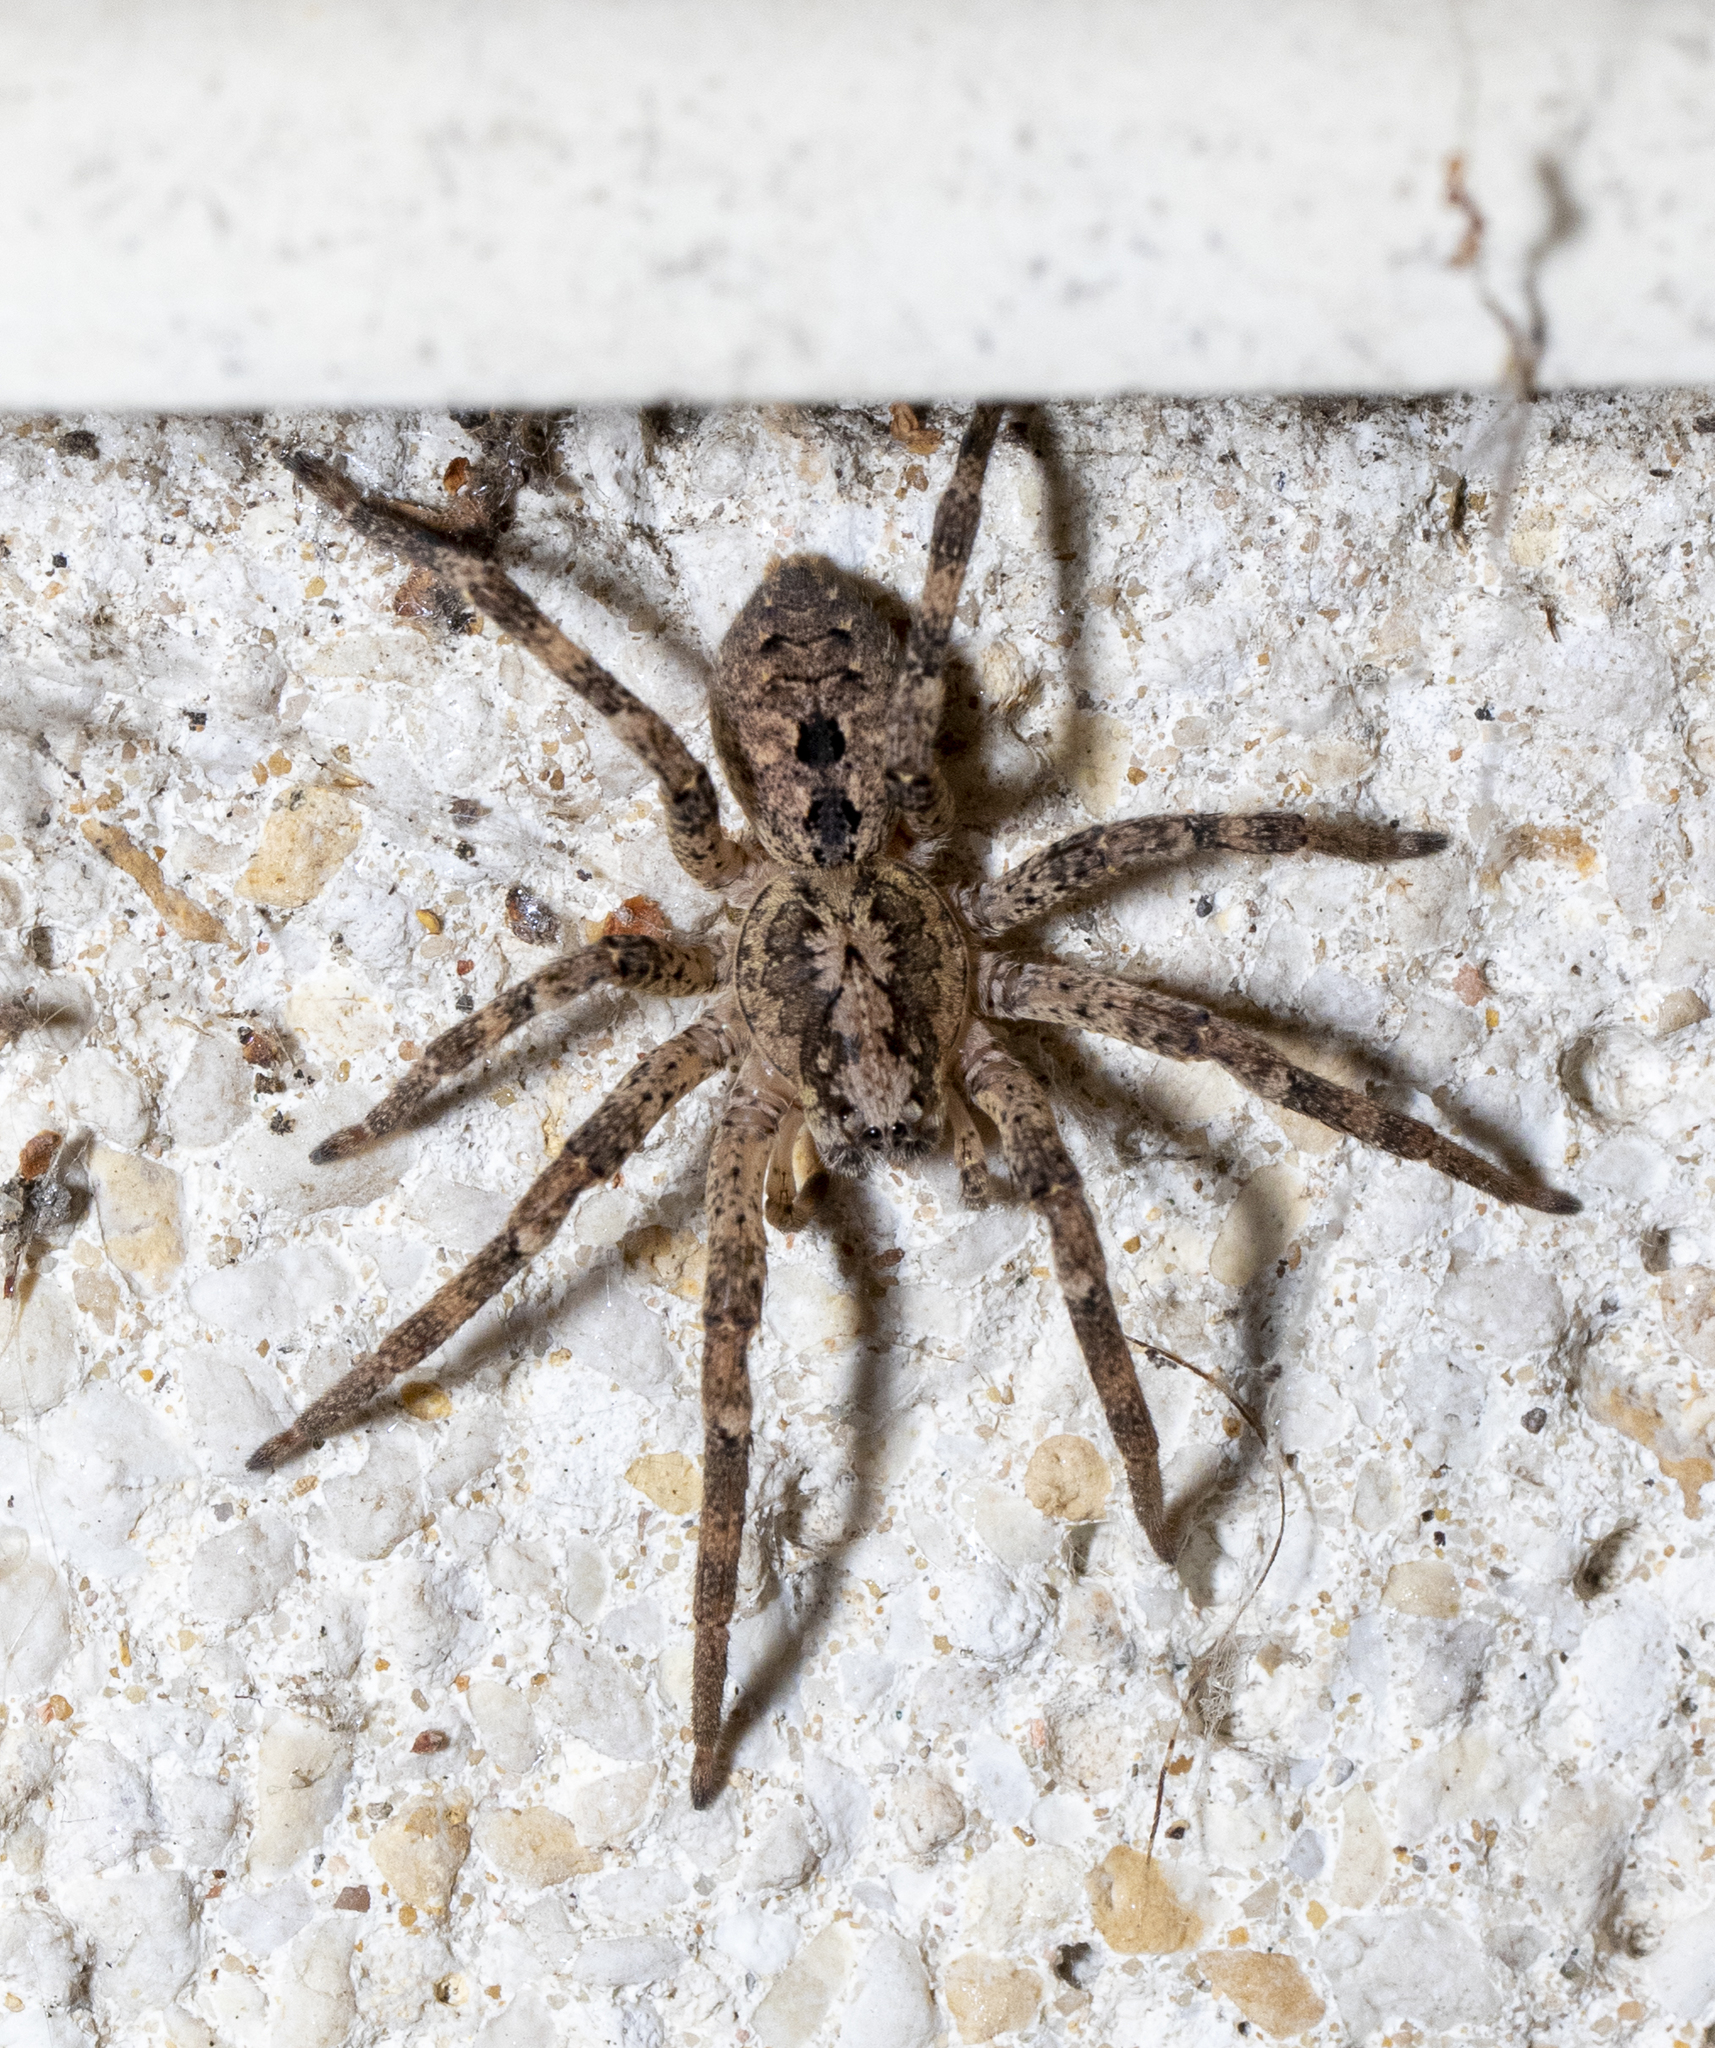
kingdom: Animalia
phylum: Arthropoda
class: Arachnida
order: Araneae
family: Zoropsidae
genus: Zoropsis
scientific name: Zoropsis spinimana
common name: Zoropsid spider
